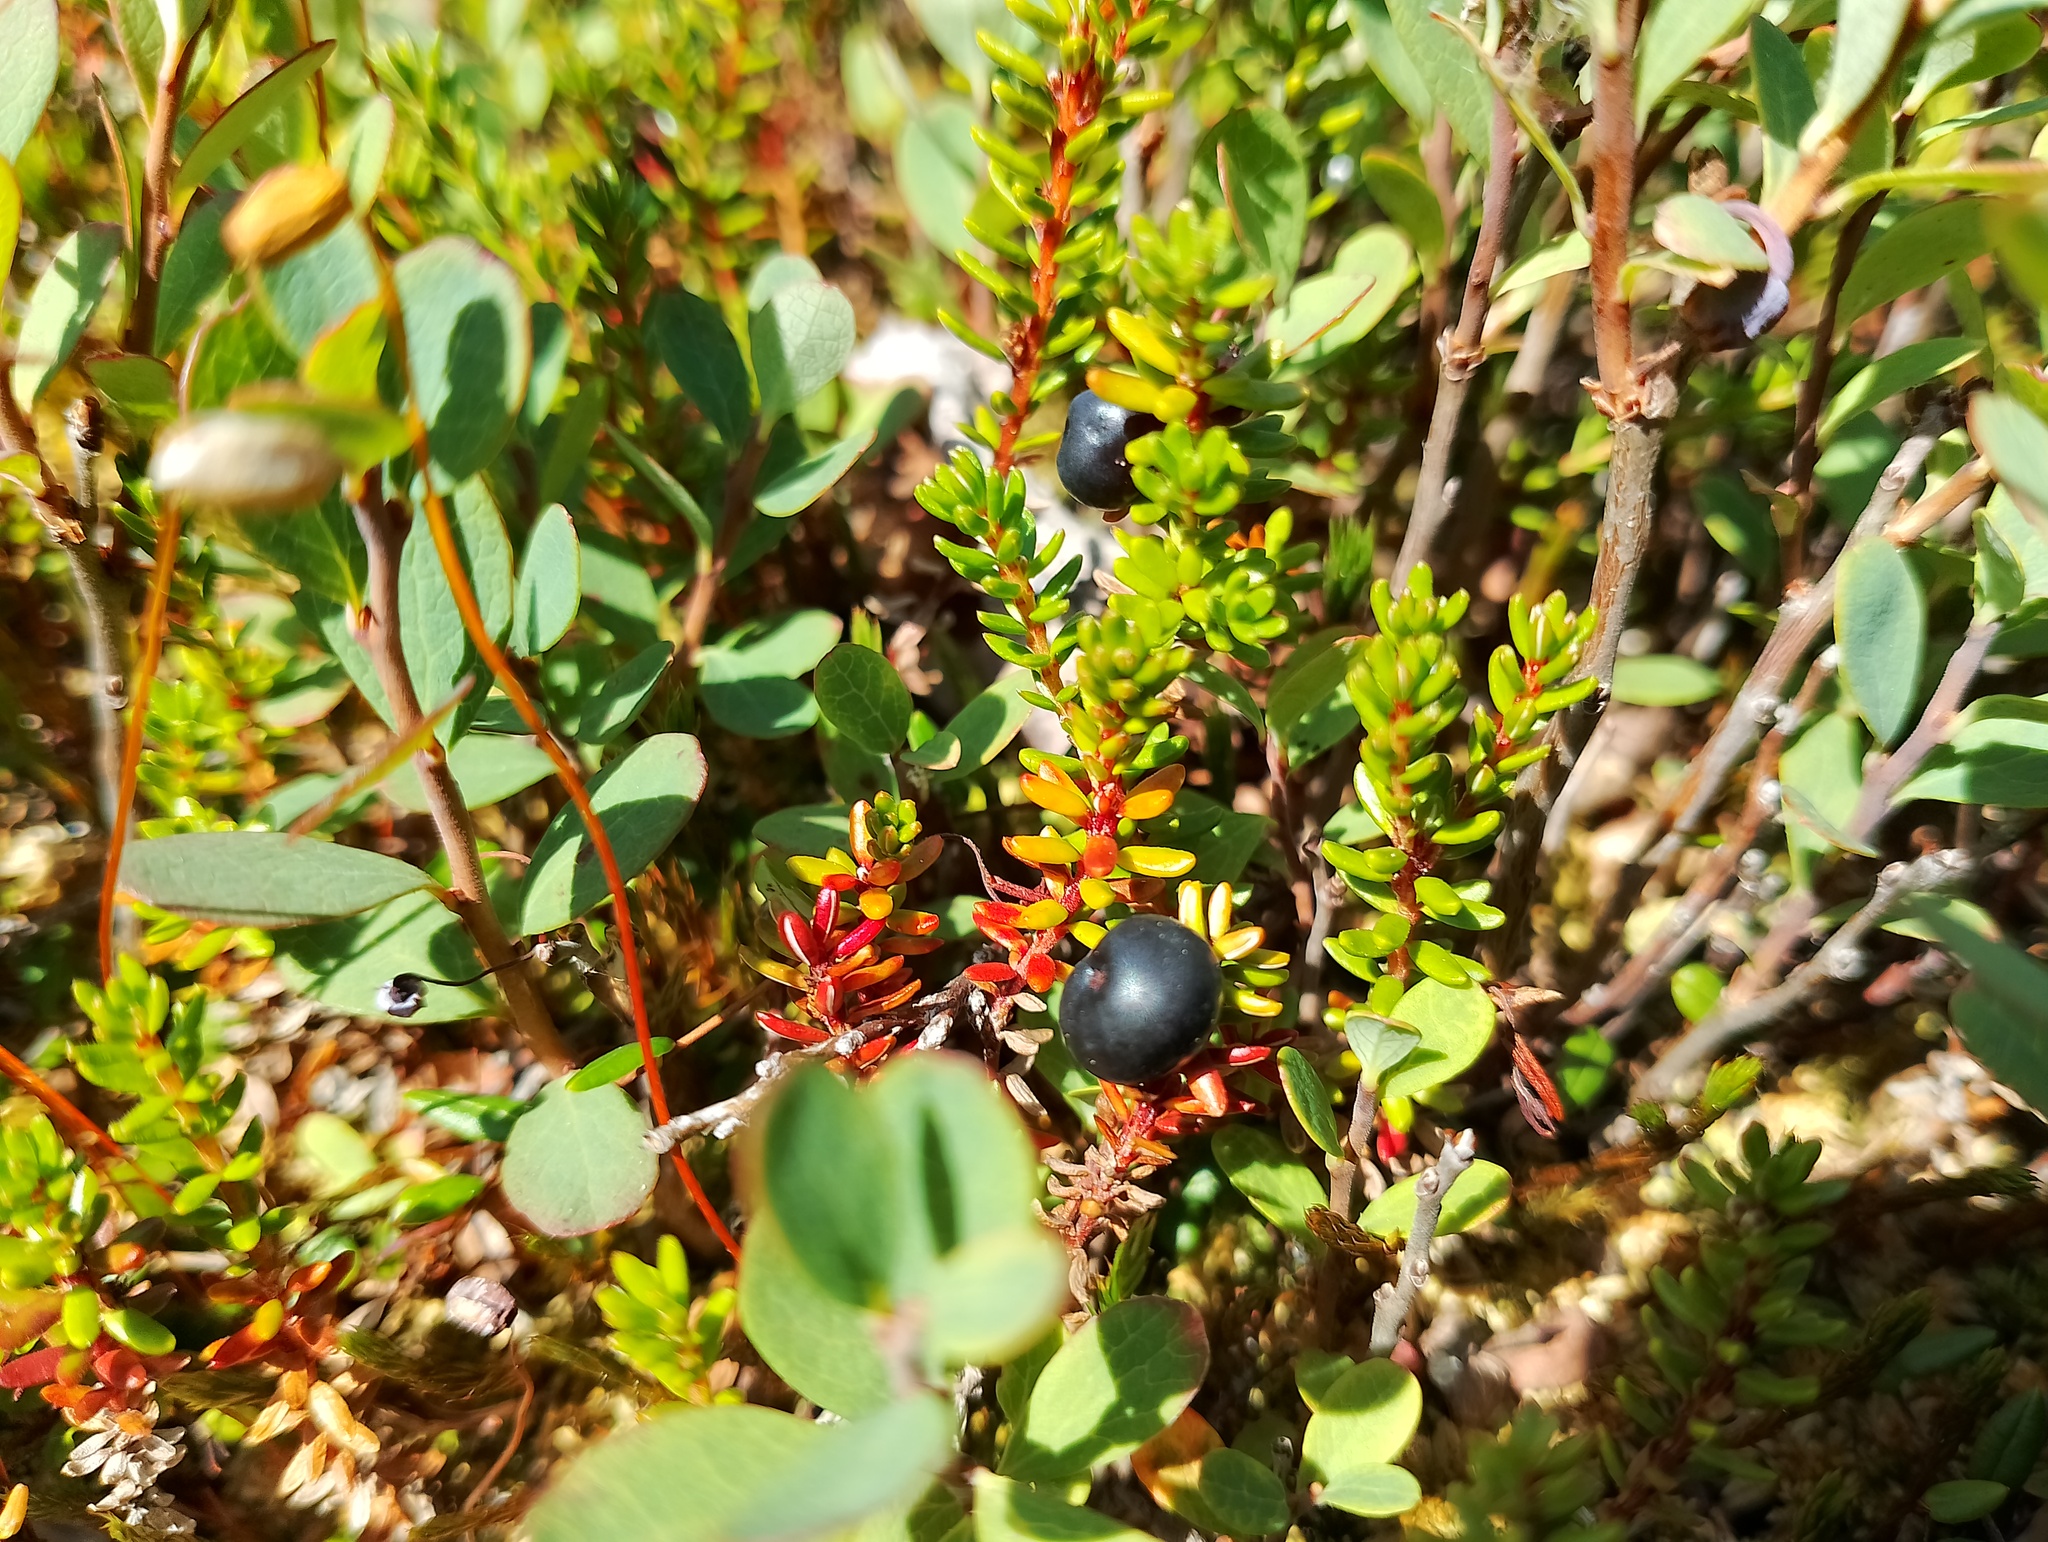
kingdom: Plantae
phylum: Tracheophyta
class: Magnoliopsida
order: Ericales
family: Ericaceae
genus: Empetrum
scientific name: Empetrum nigrum
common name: Black crowberry
